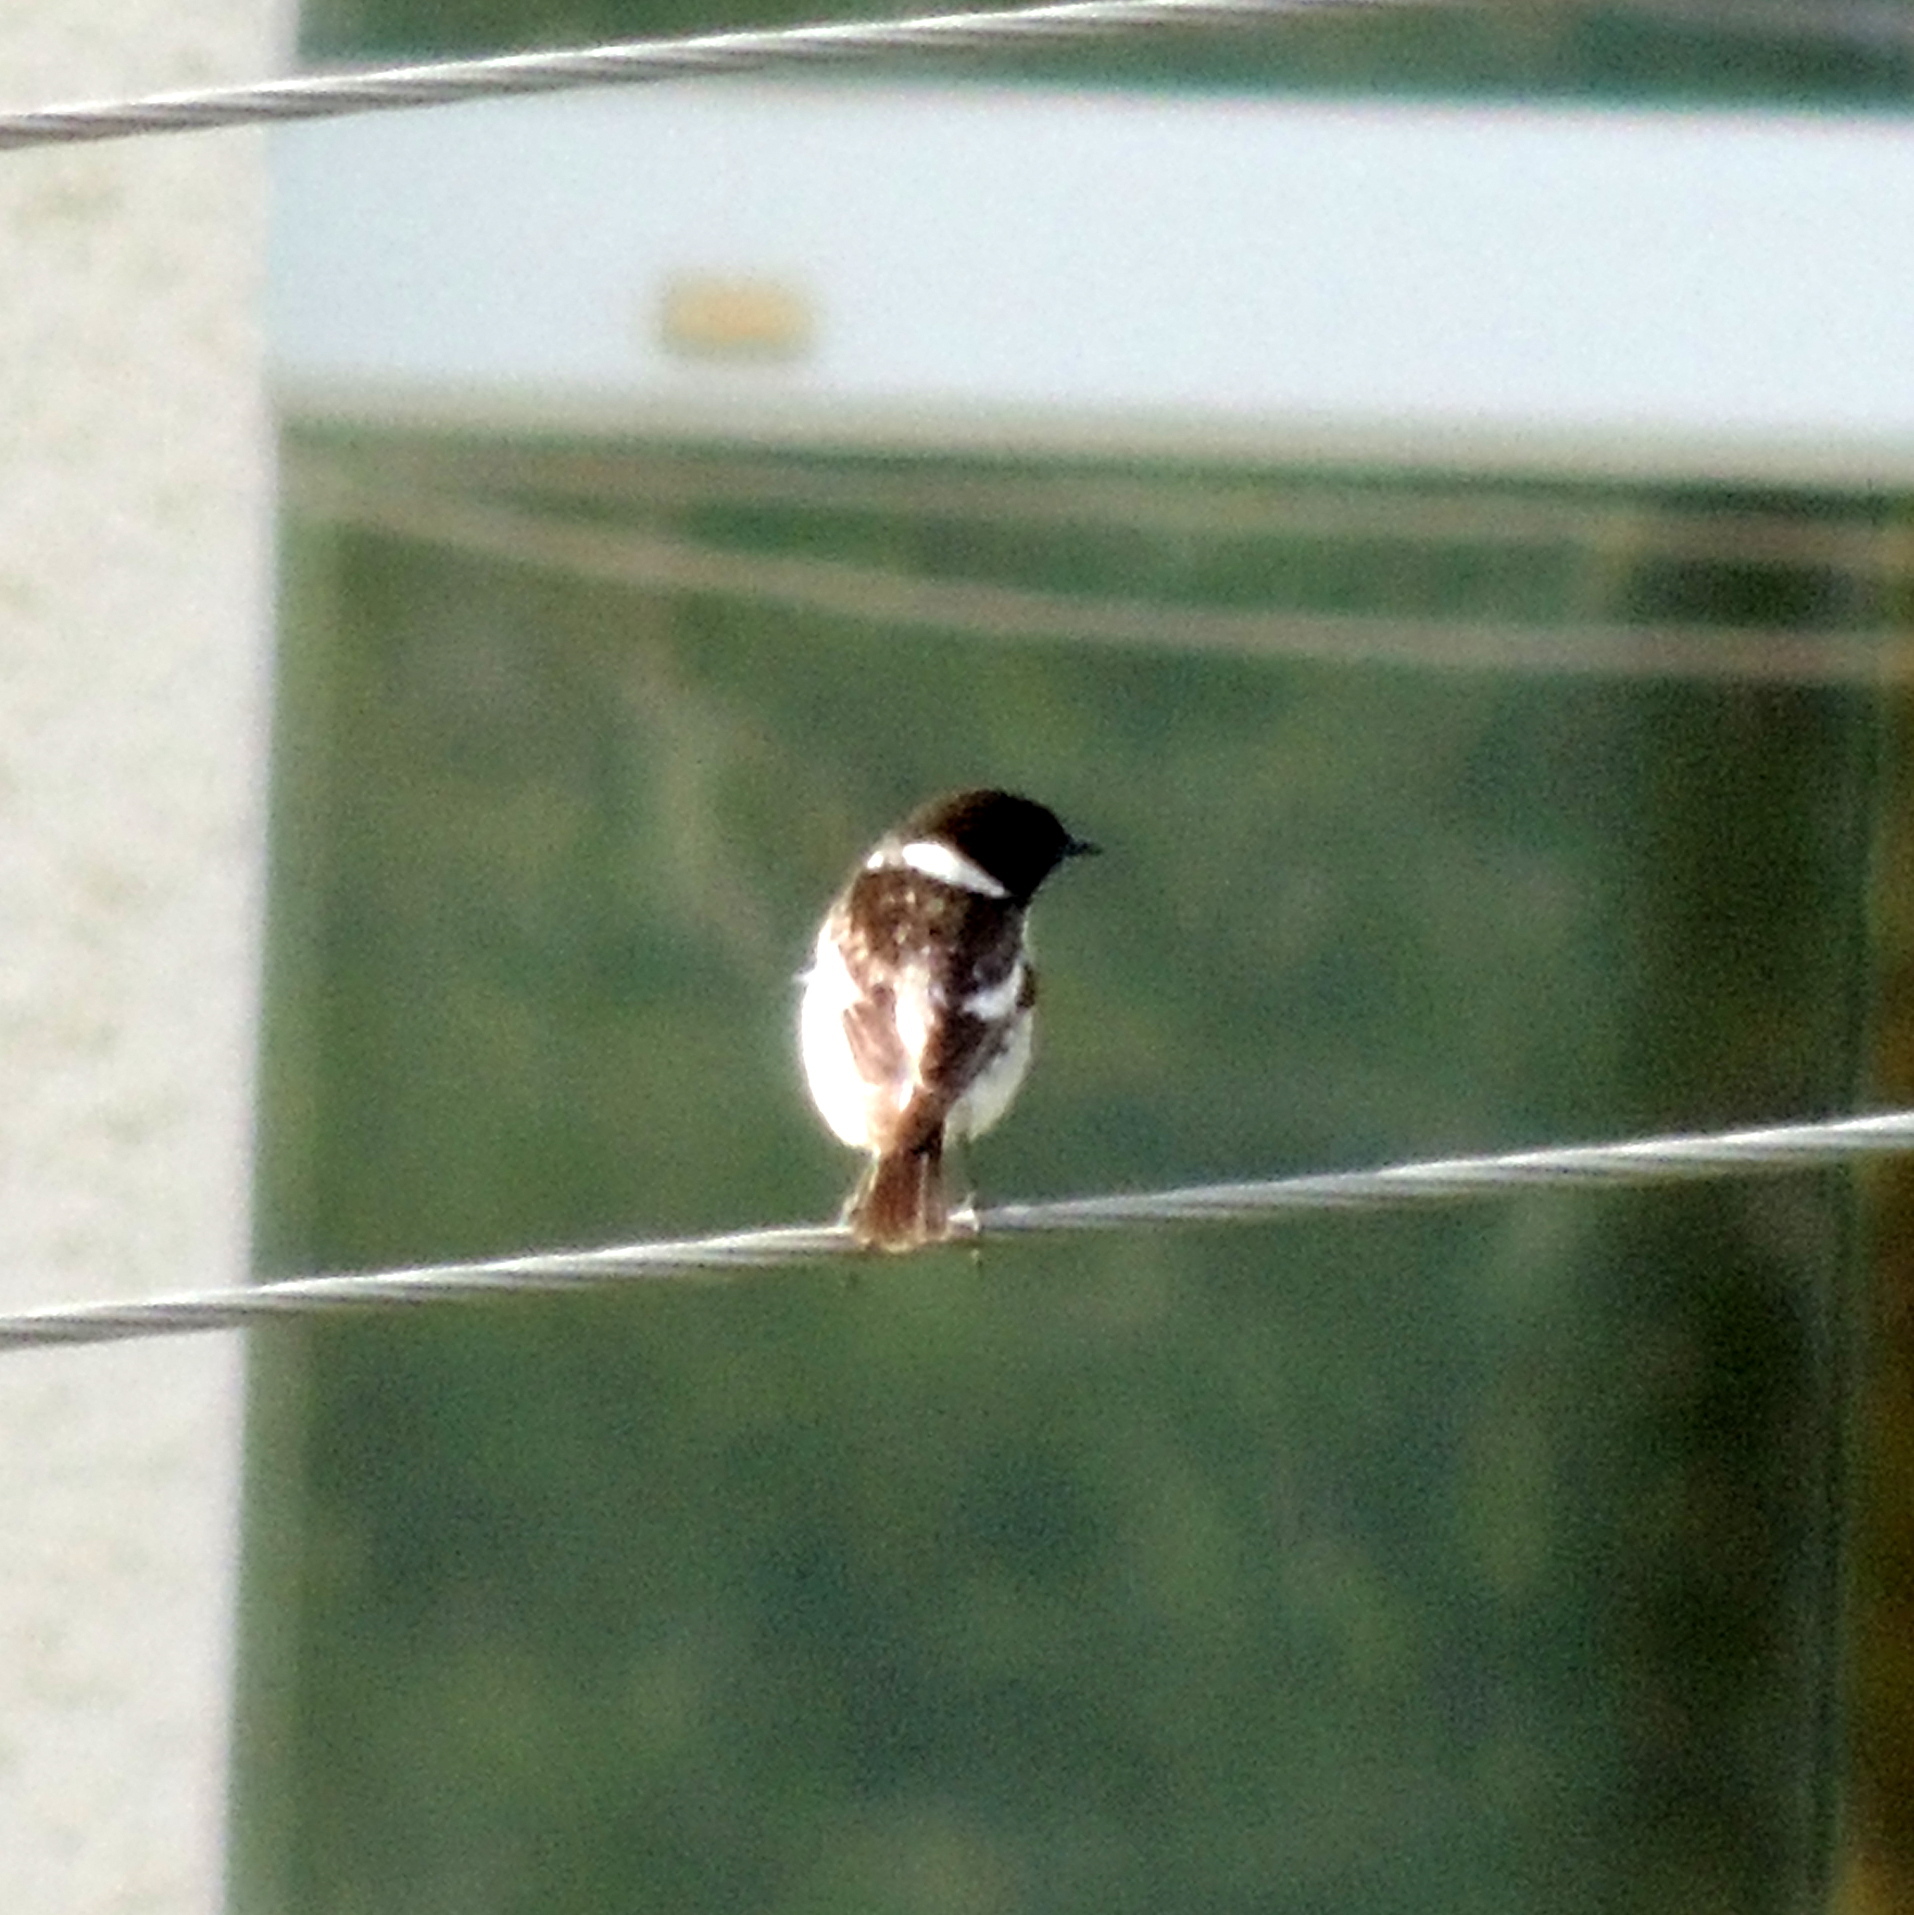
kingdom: Animalia
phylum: Chordata
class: Aves
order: Passeriformes
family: Muscicapidae
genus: Saxicola
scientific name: Saxicola maurus
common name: Siberian stonechat
